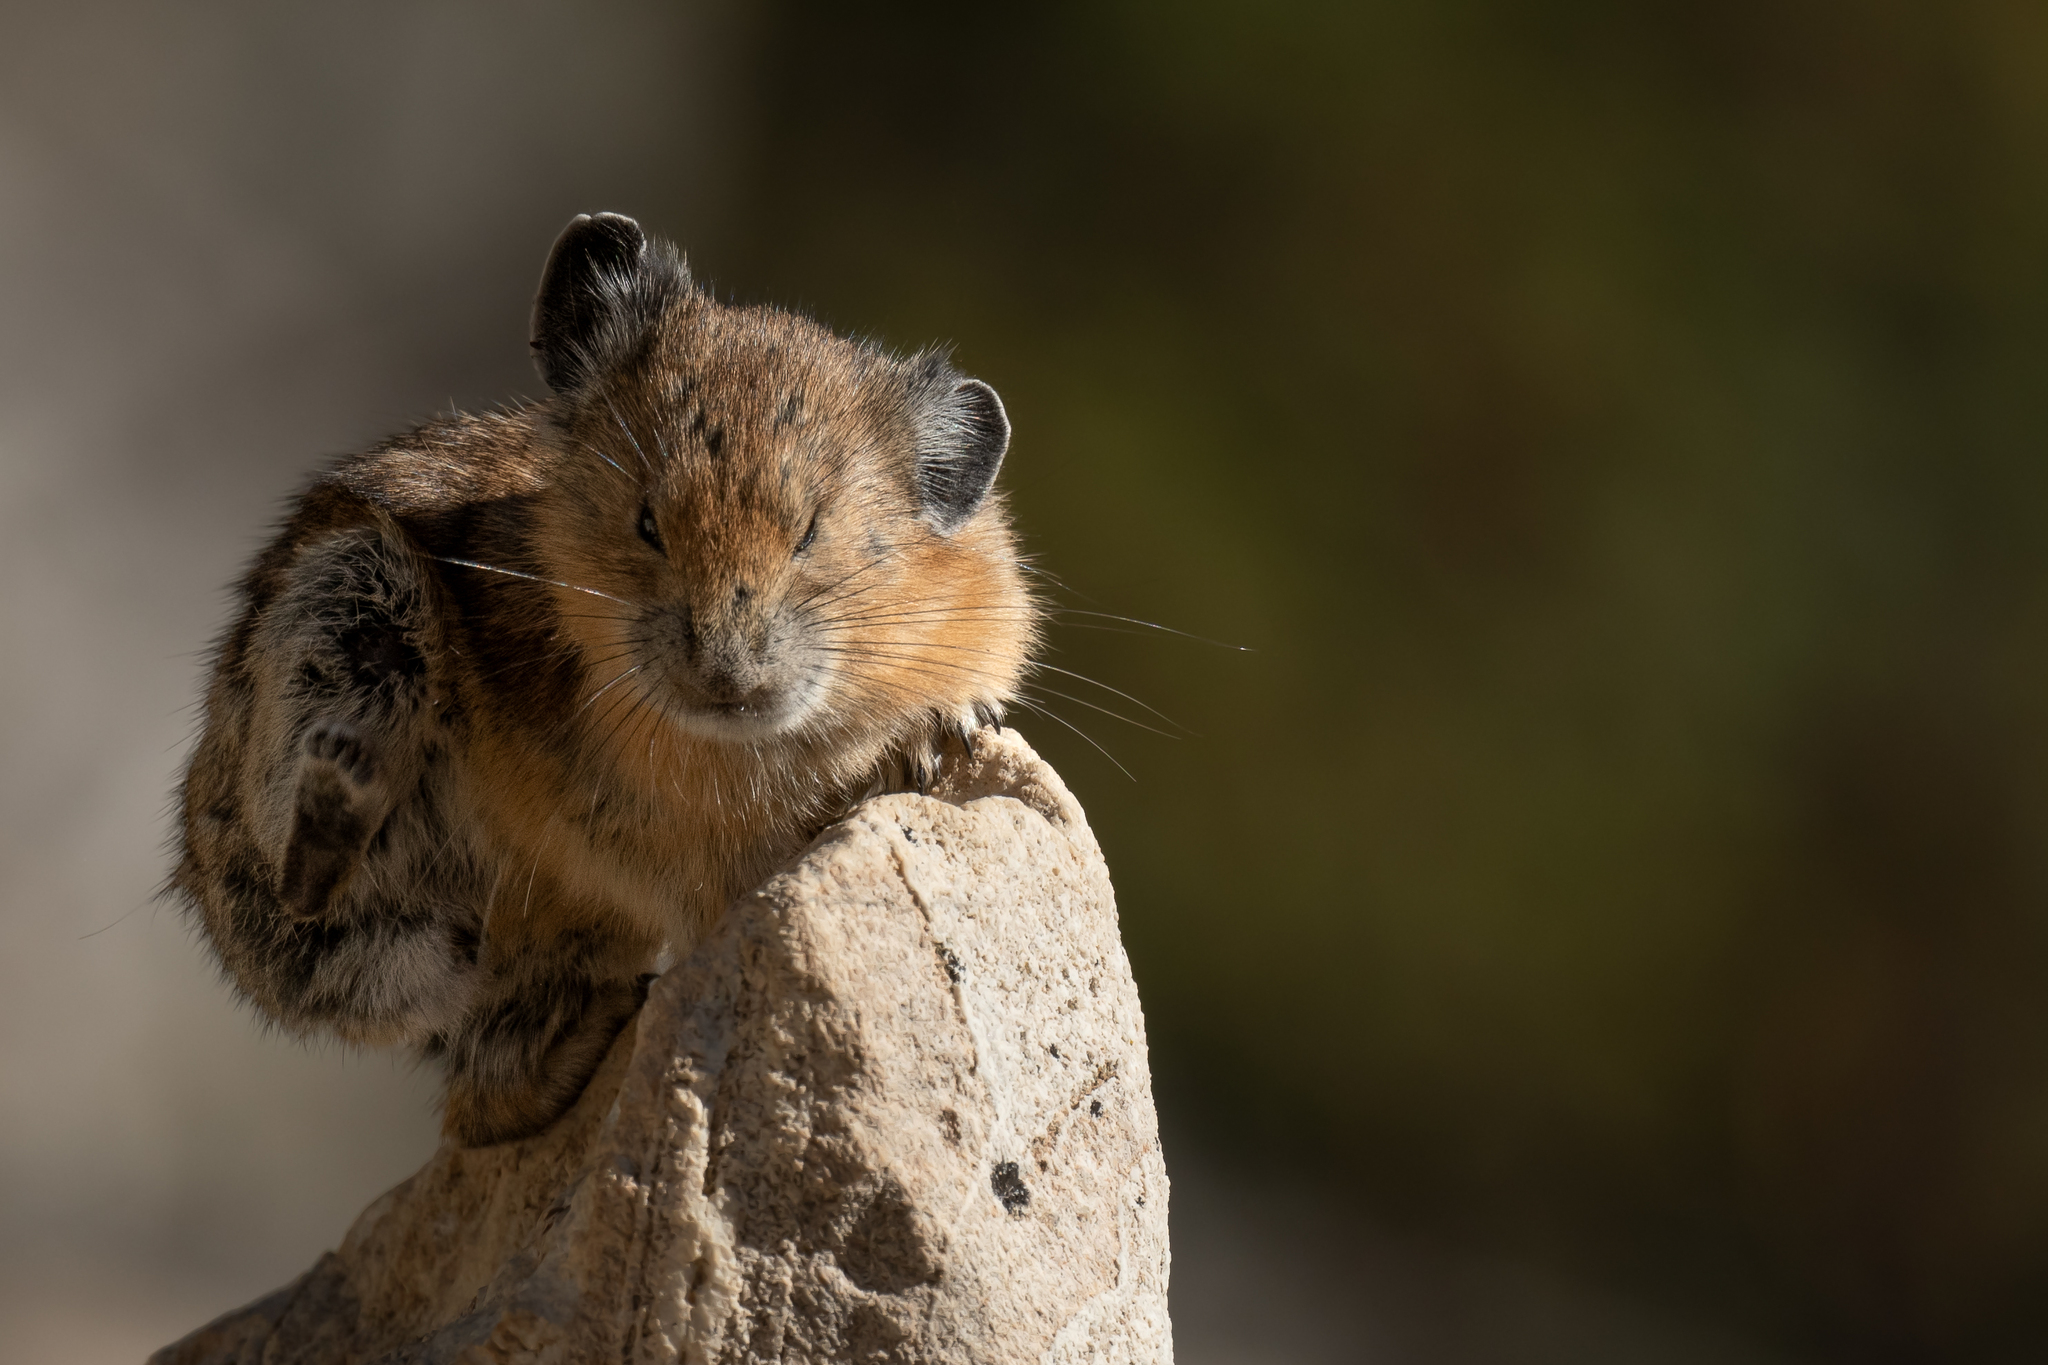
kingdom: Animalia
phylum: Chordata
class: Mammalia
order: Lagomorpha
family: Ochotonidae
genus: Ochotona
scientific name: Ochotona princeps
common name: American pika
